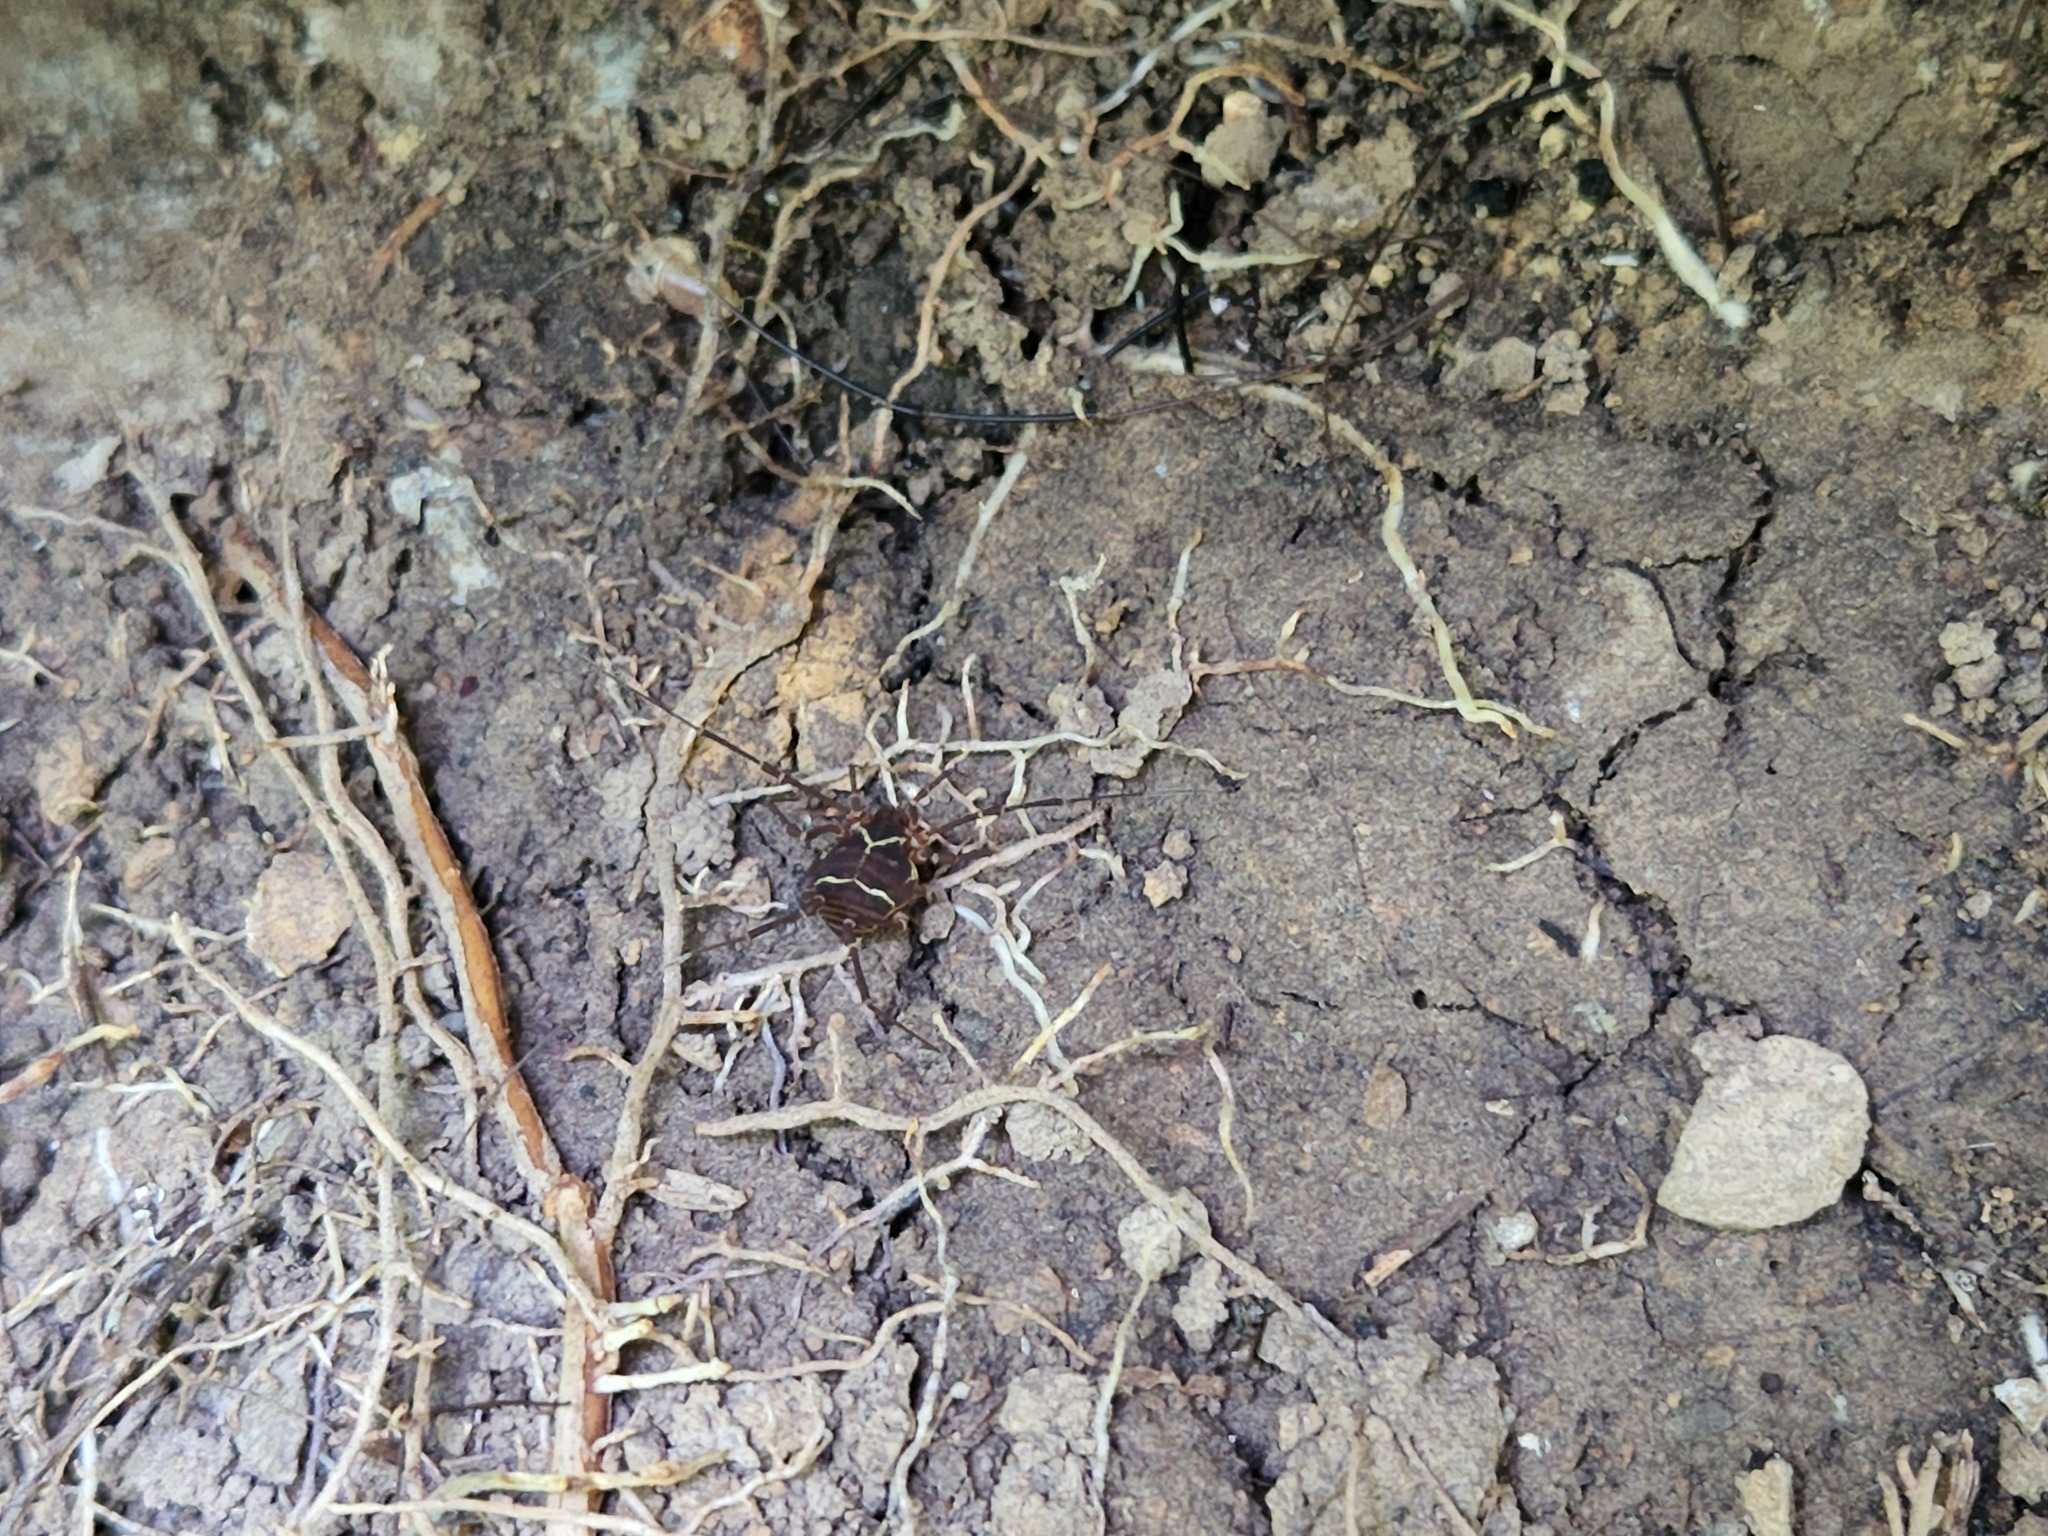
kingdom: Animalia
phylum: Arthropoda
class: Arachnida
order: Opiliones
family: Cosmetidae
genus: Libitioides
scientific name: Libitioides sayi
